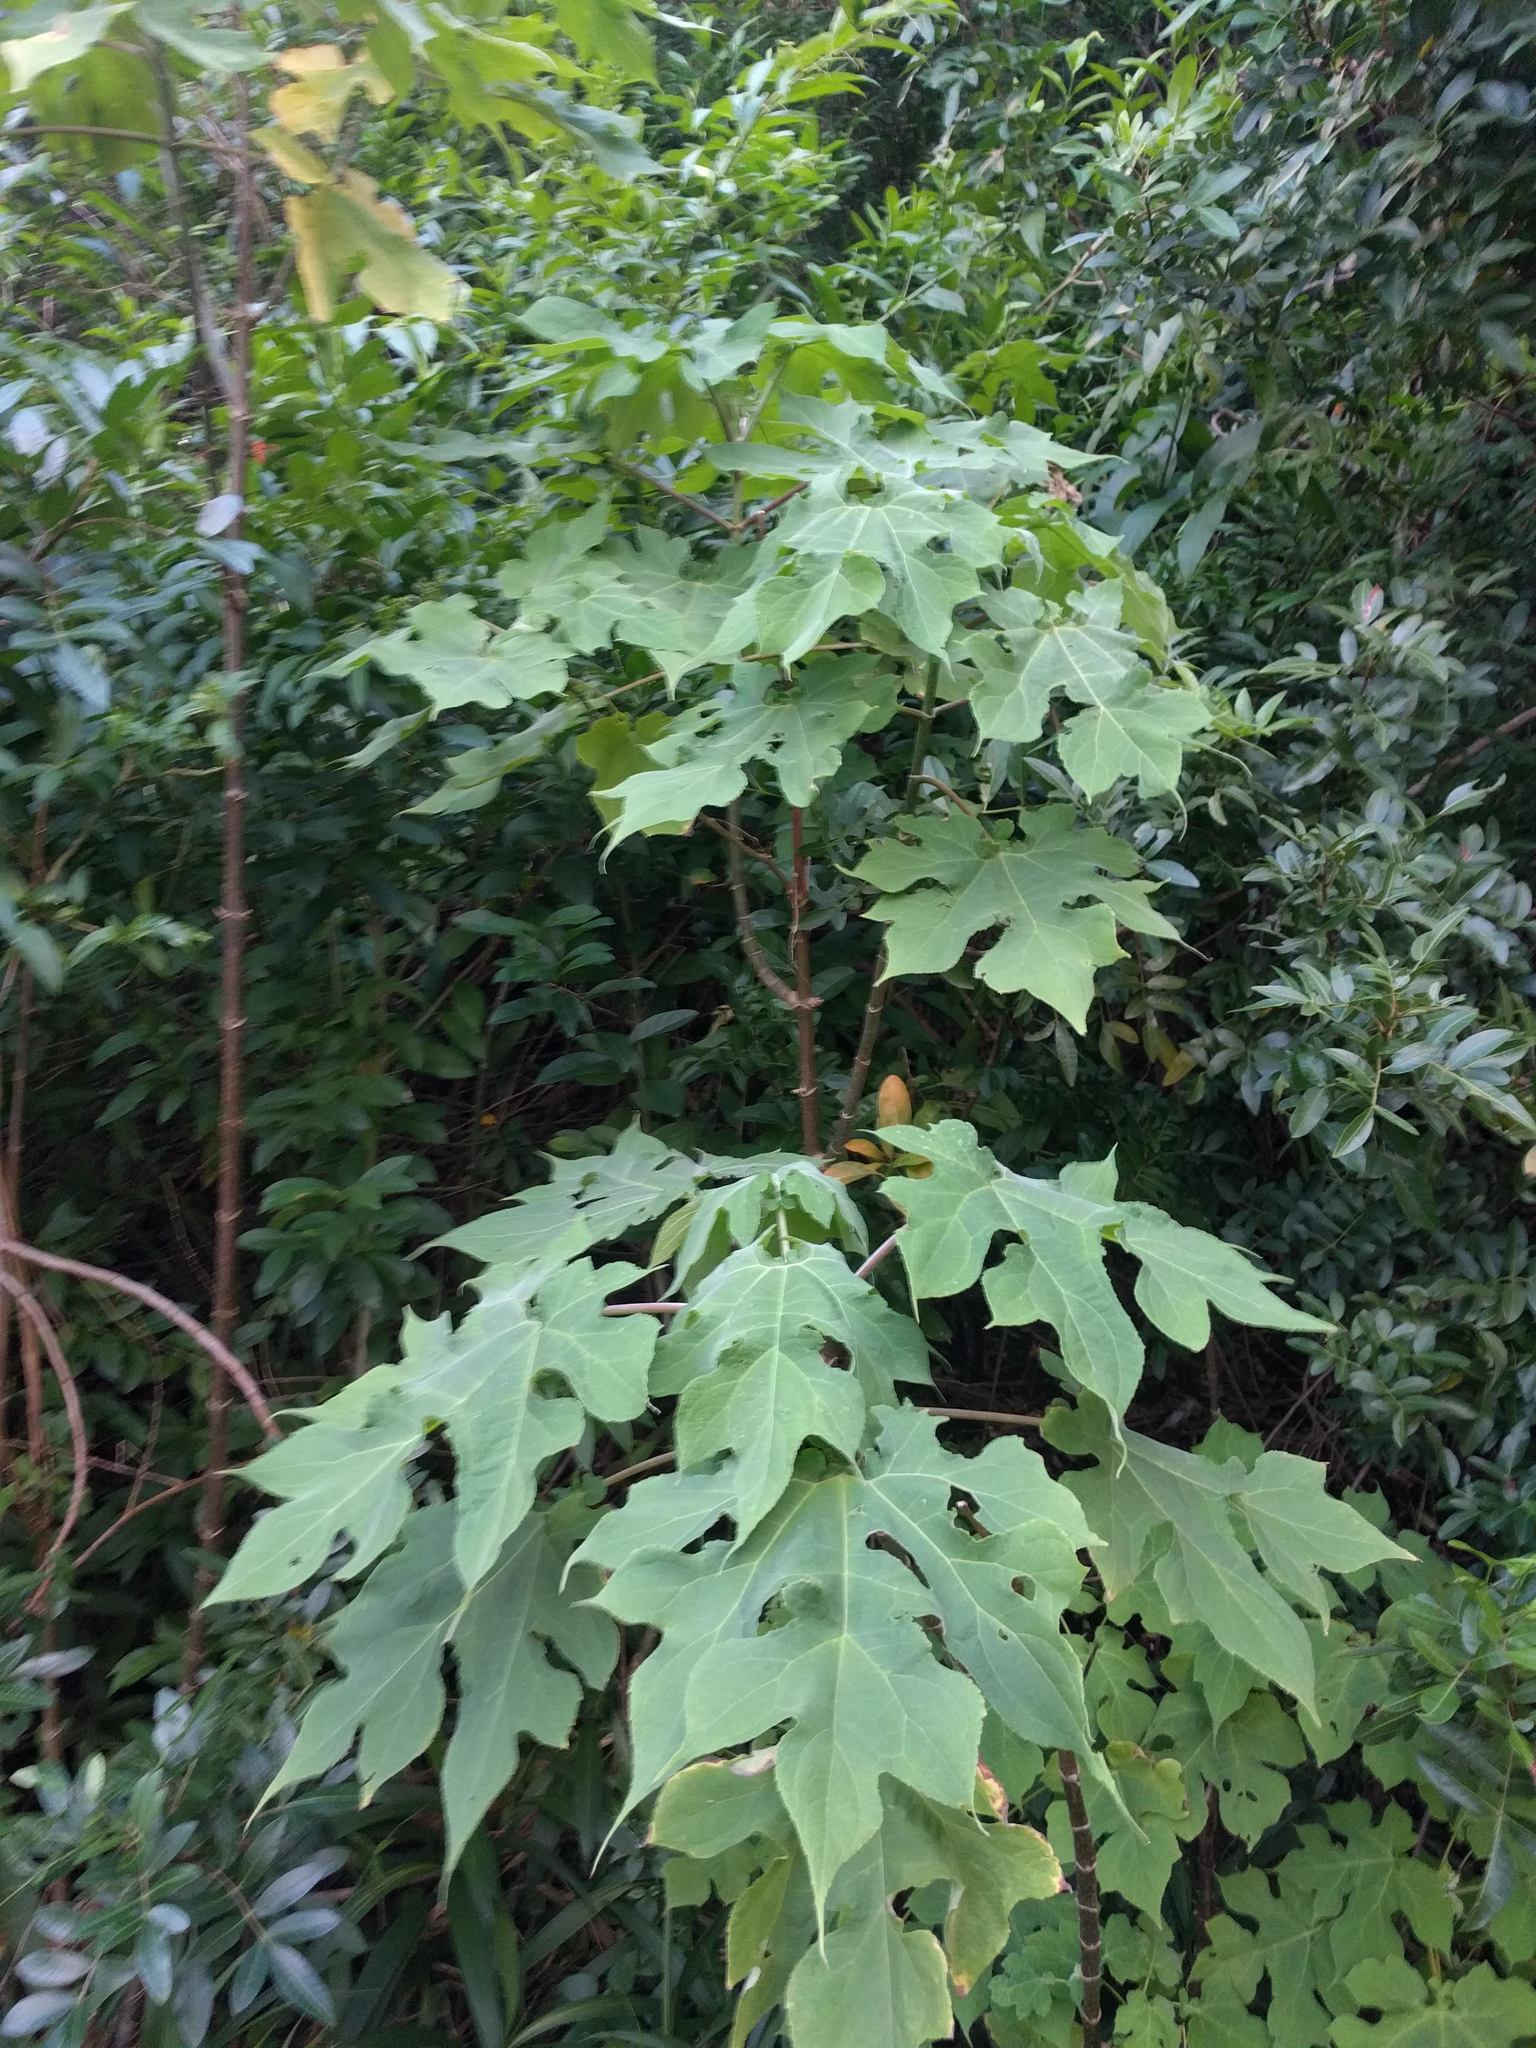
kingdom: Plantae
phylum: Tracheophyta
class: Magnoliopsida
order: Asterales
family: Asteraceae
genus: Montanoa
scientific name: Montanoa hibiscifolia
